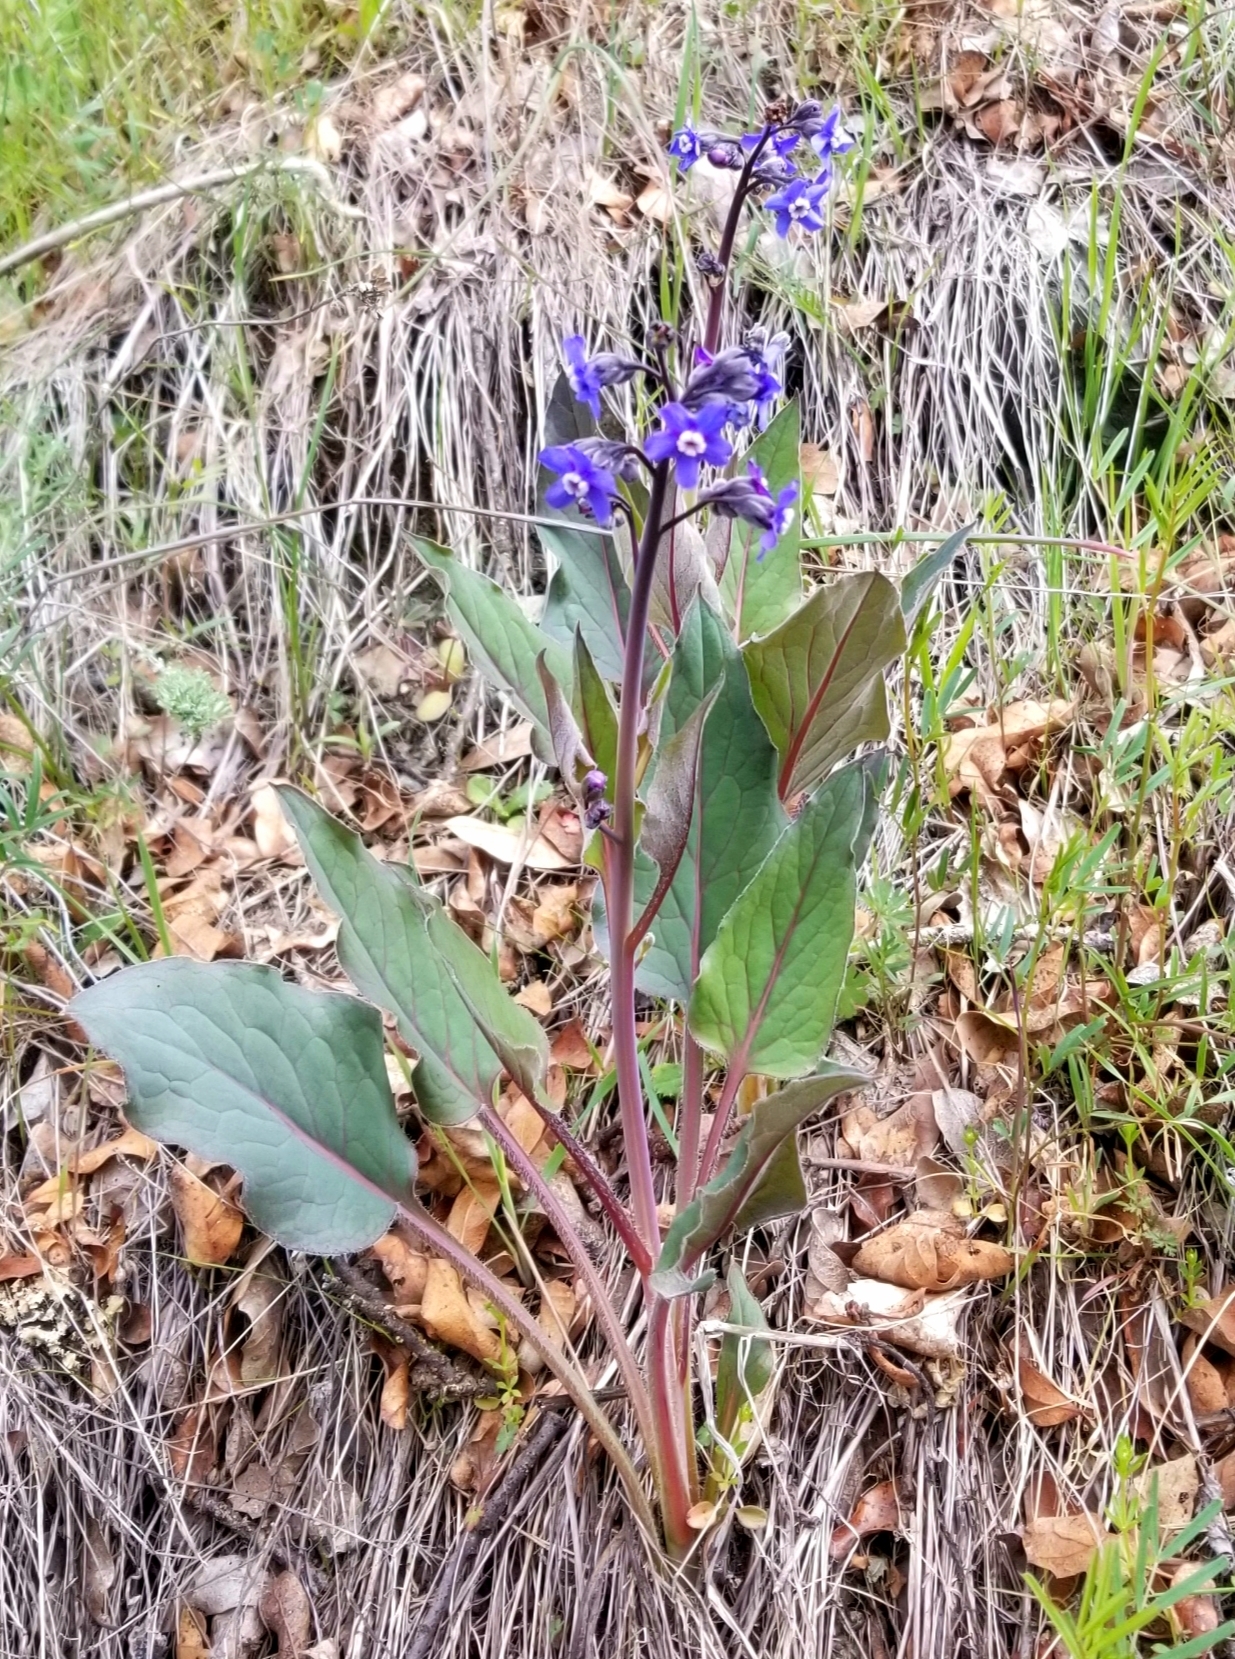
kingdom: Plantae
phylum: Tracheophyta
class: Magnoliopsida
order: Boraginales
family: Boraginaceae
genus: Adelinia
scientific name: Adelinia grande
